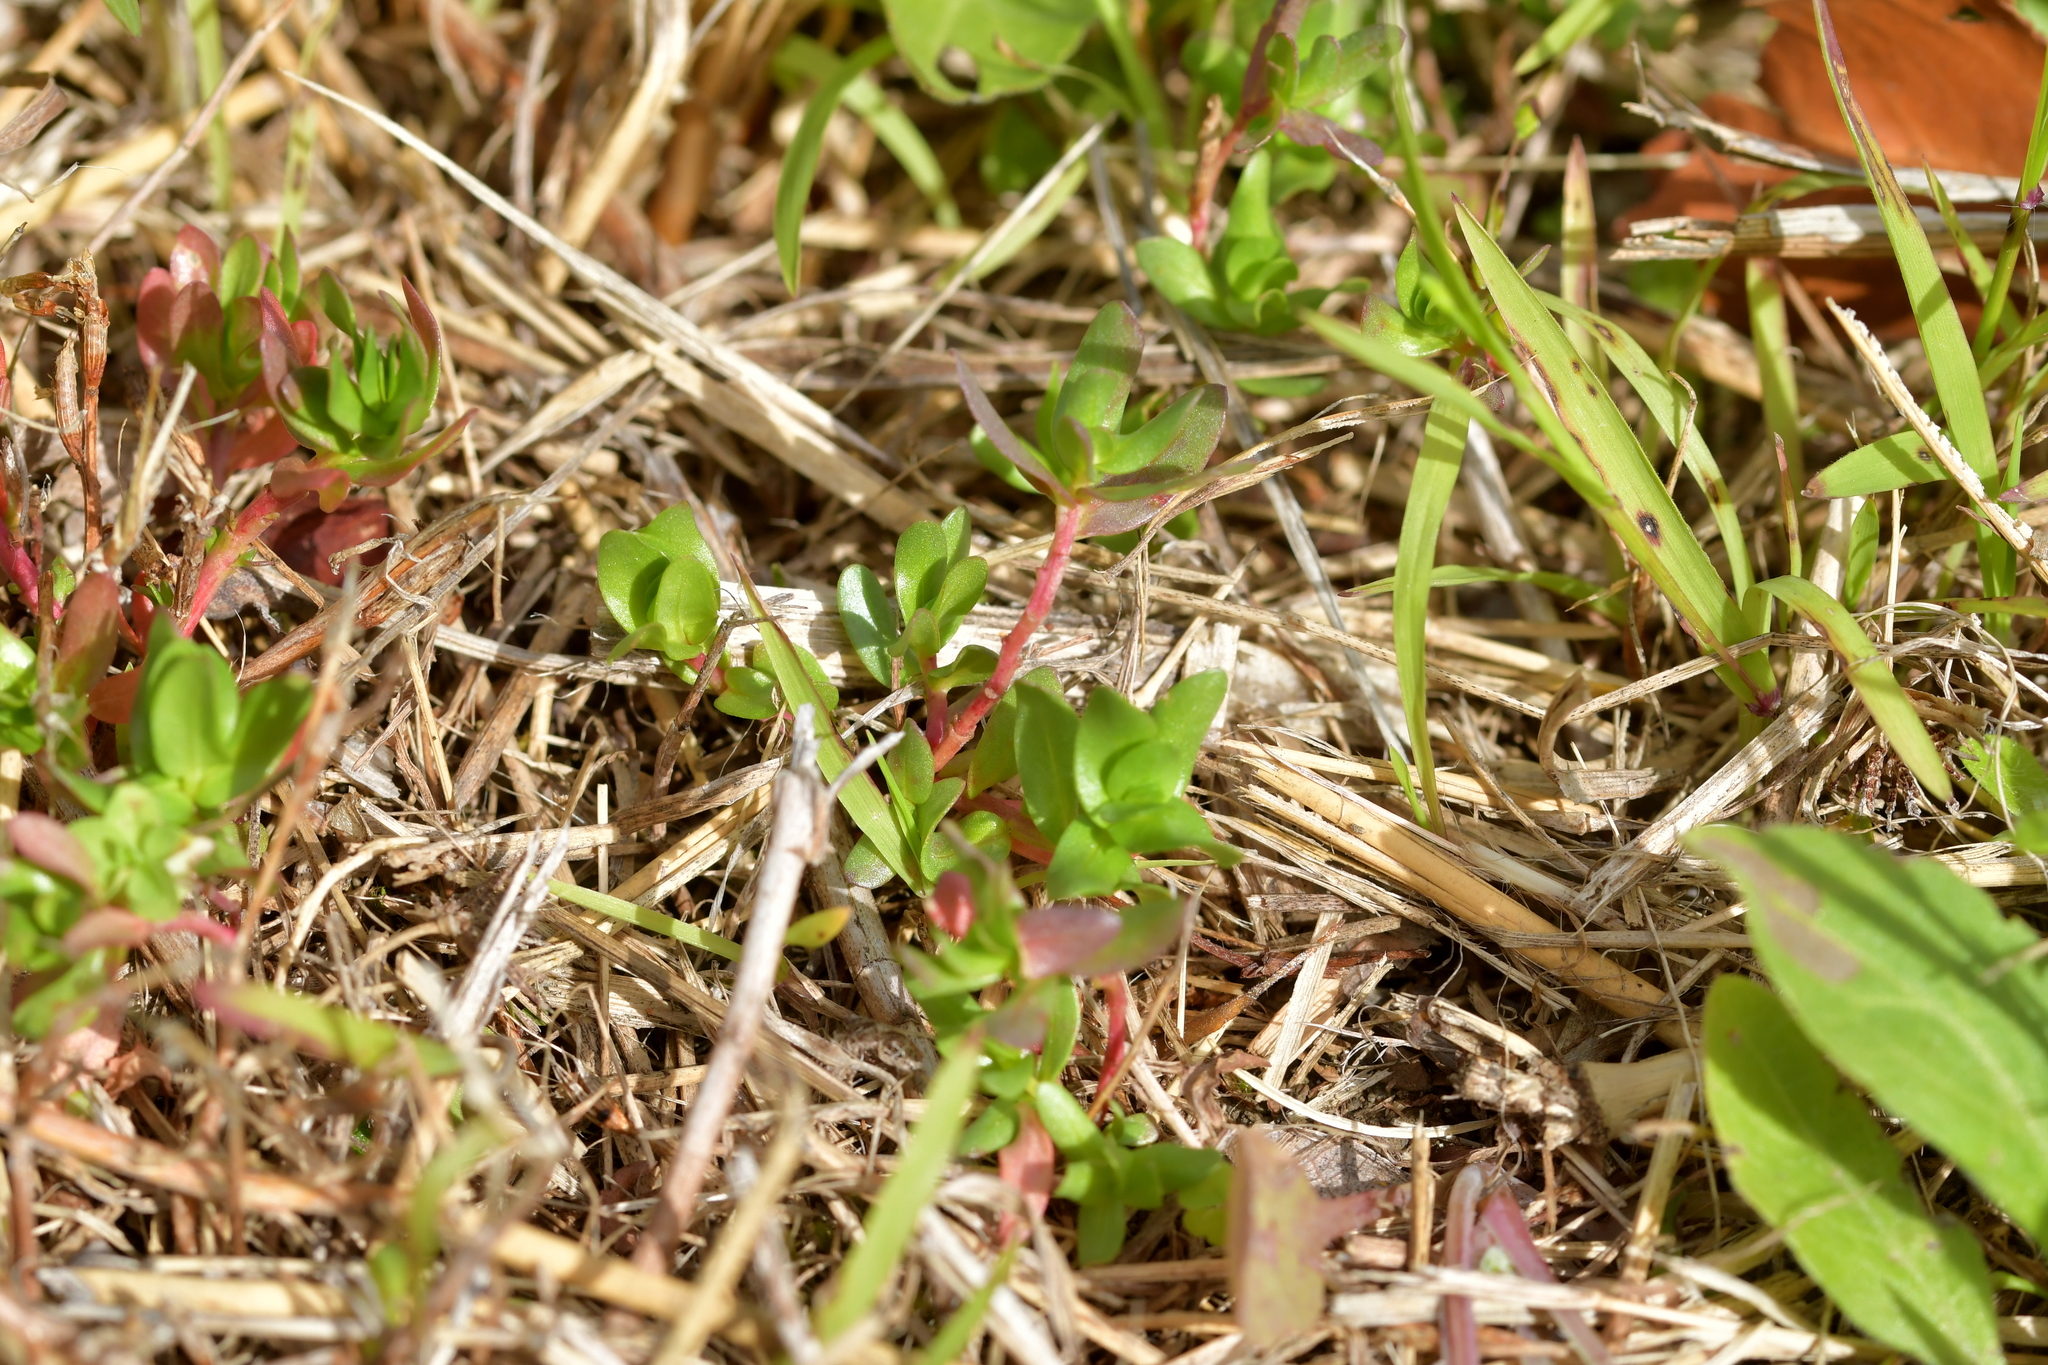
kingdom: Plantae
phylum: Tracheophyta
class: Magnoliopsida
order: Myrtales
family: Lythraceae
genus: Lythrum
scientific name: Lythrum hyssopifolia
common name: Grass-poly
